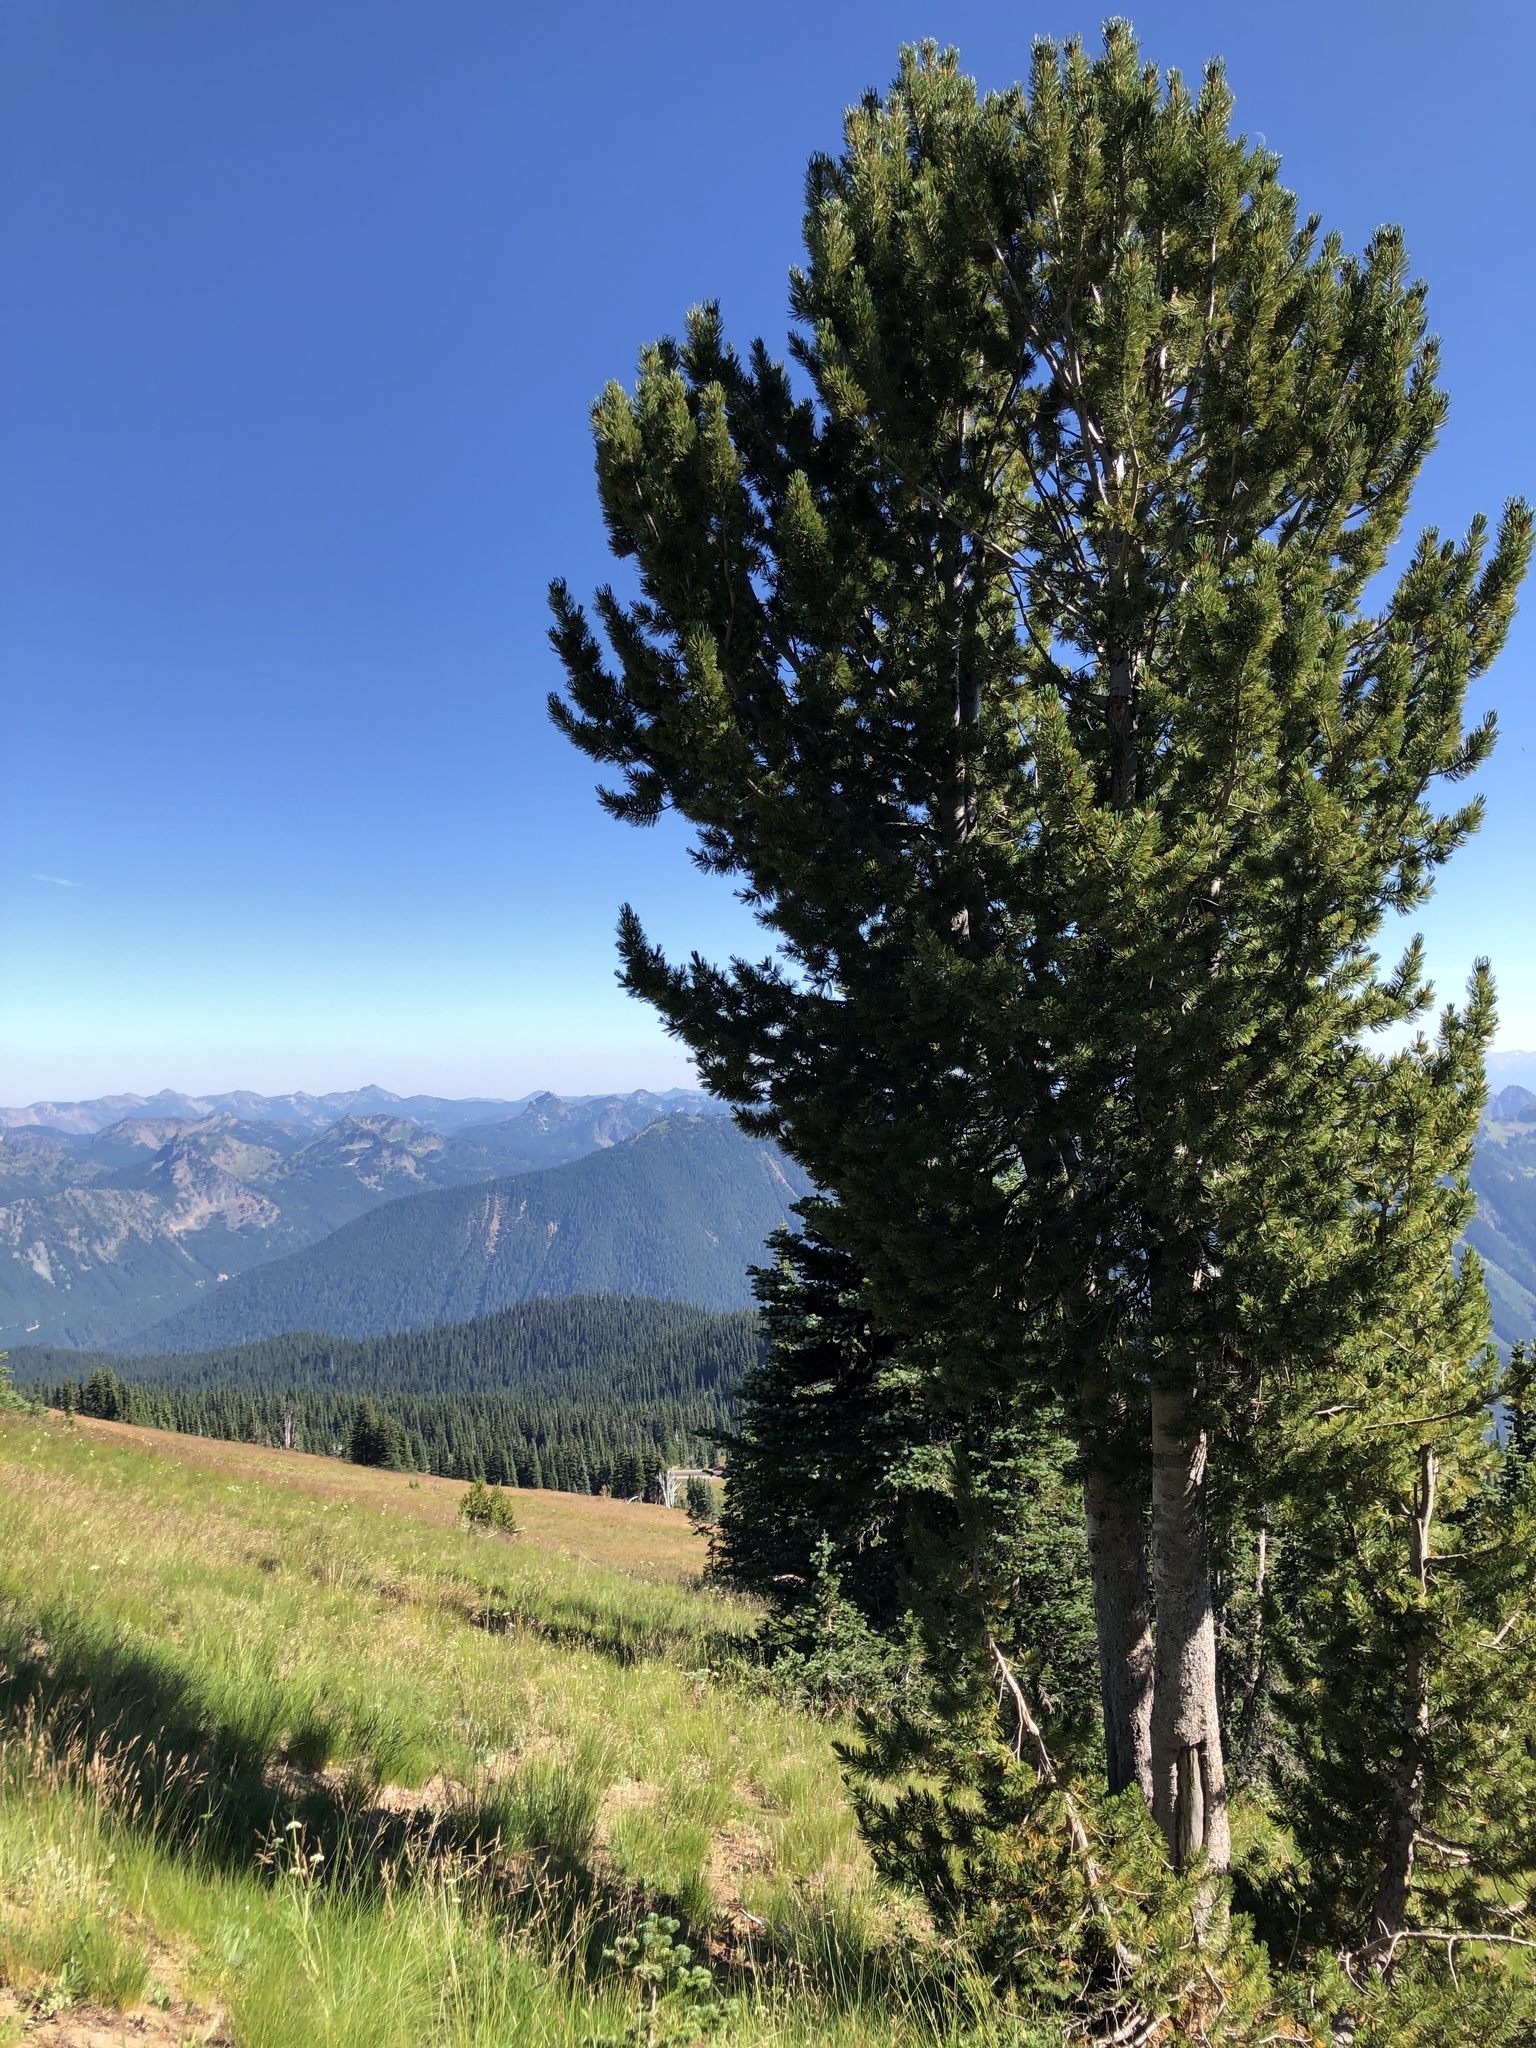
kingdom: Plantae
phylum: Tracheophyta
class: Pinopsida
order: Pinales
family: Pinaceae
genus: Pinus
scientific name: Pinus albicaulis
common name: Whitebark pine
